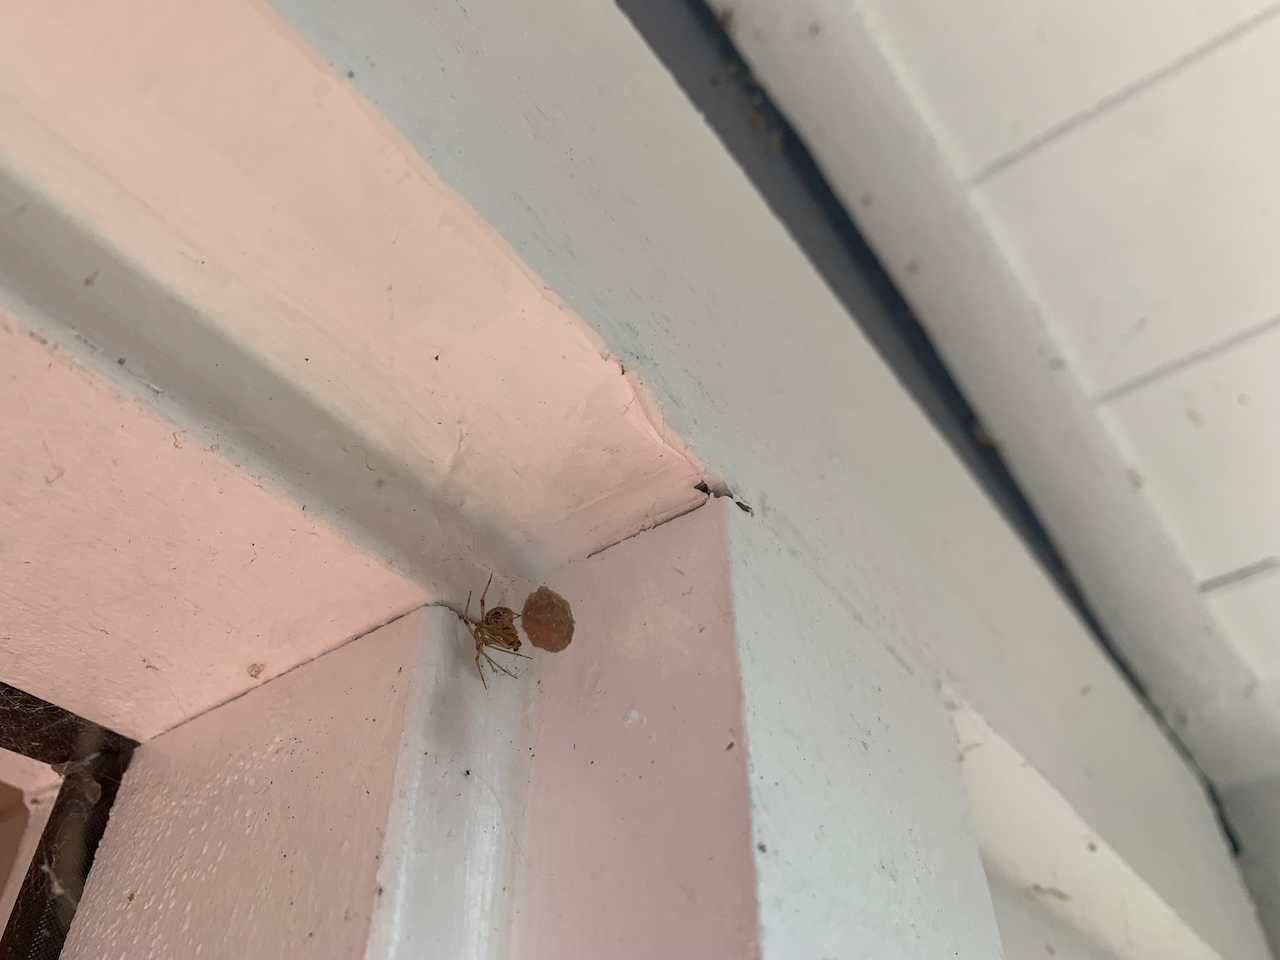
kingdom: Animalia
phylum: Arthropoda
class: Arachnida
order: Araneae
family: Theridiidae
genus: Parasteatoda
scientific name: Parasteatoda tepidariorum
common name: Common house spider
